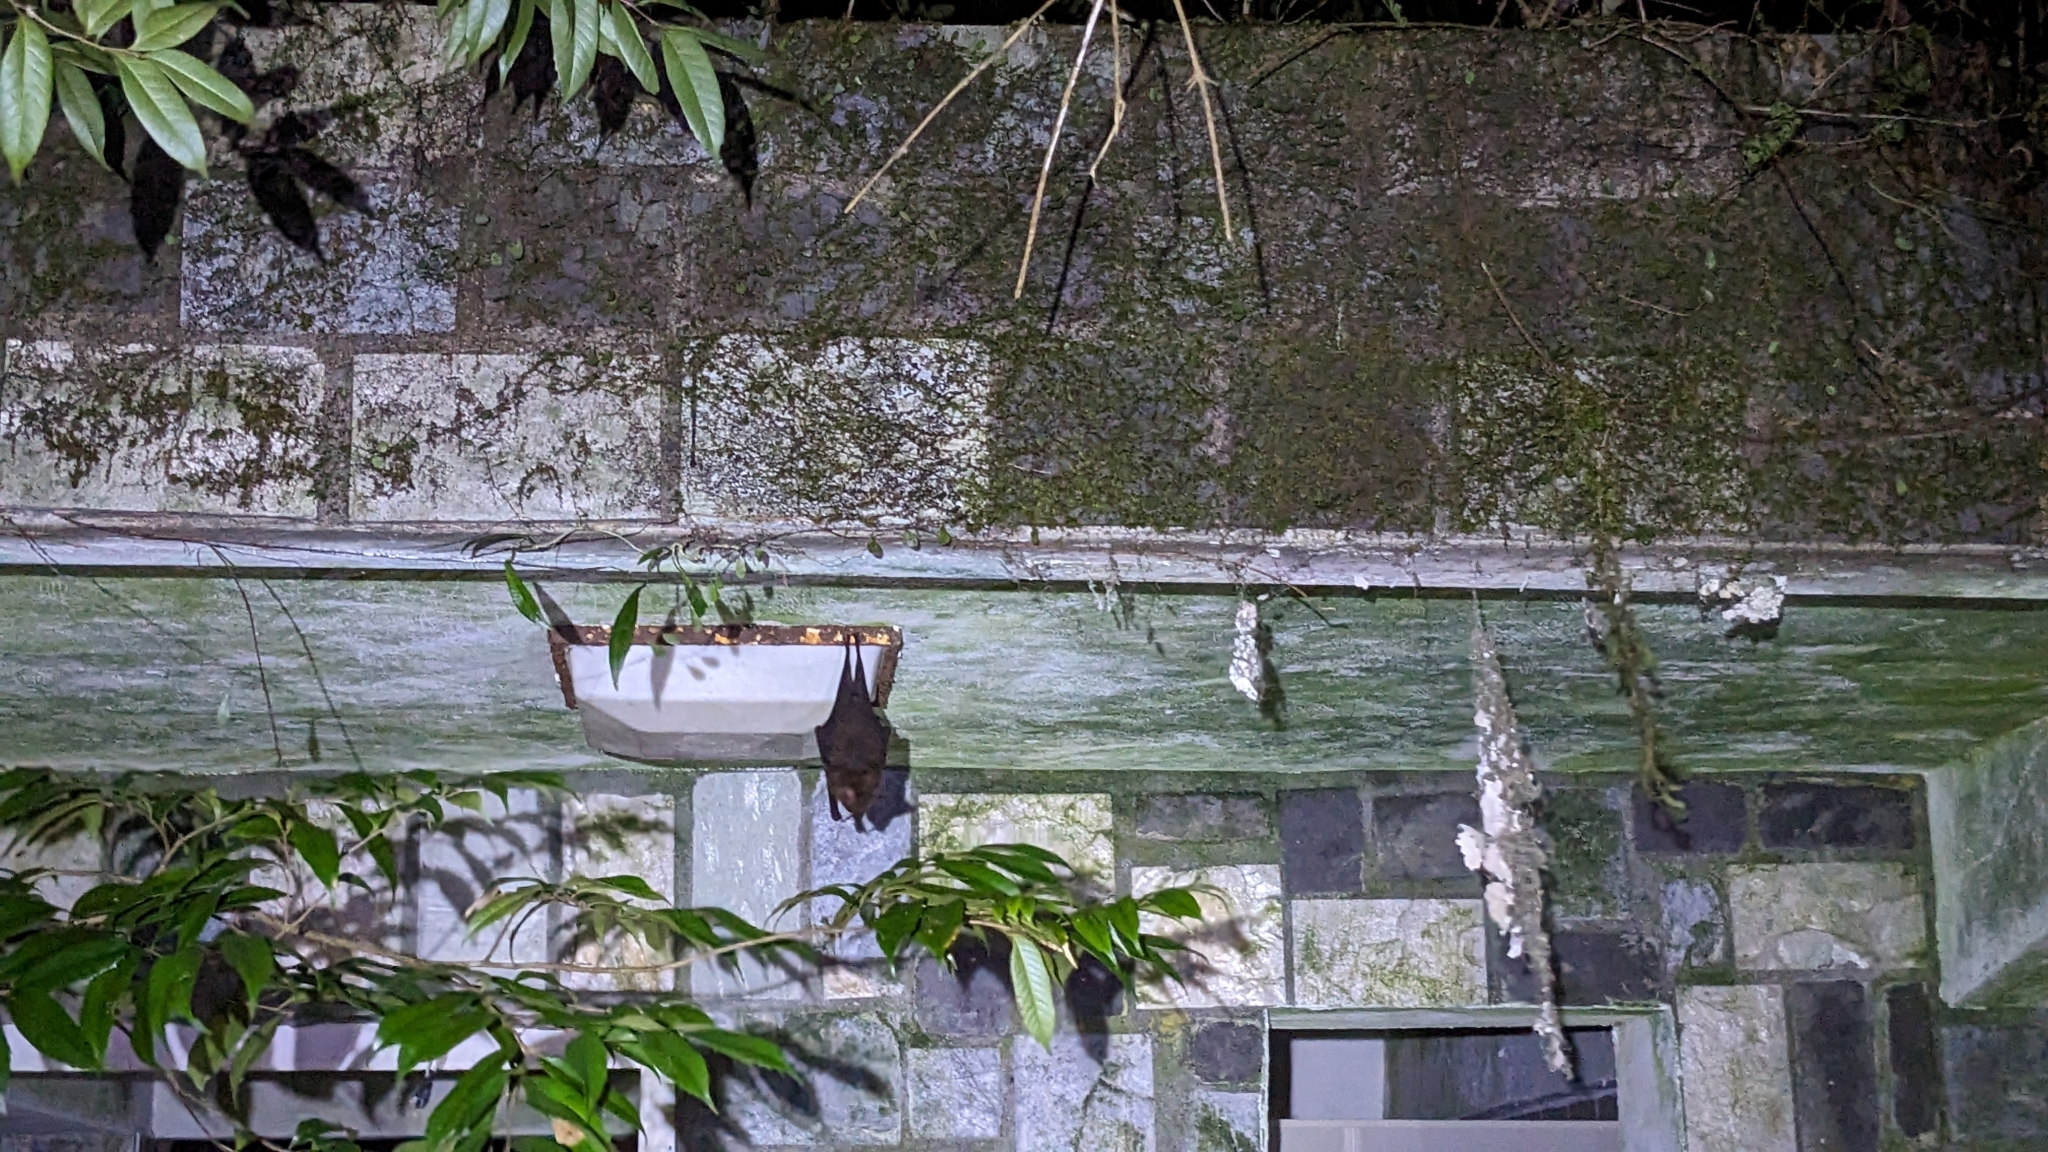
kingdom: Animalia
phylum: Chordata
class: Mammalia
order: Chiroptera
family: Hipposideridae
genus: Hipposideros
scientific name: Hipposideros armiger
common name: Great leaf-nosed bat
